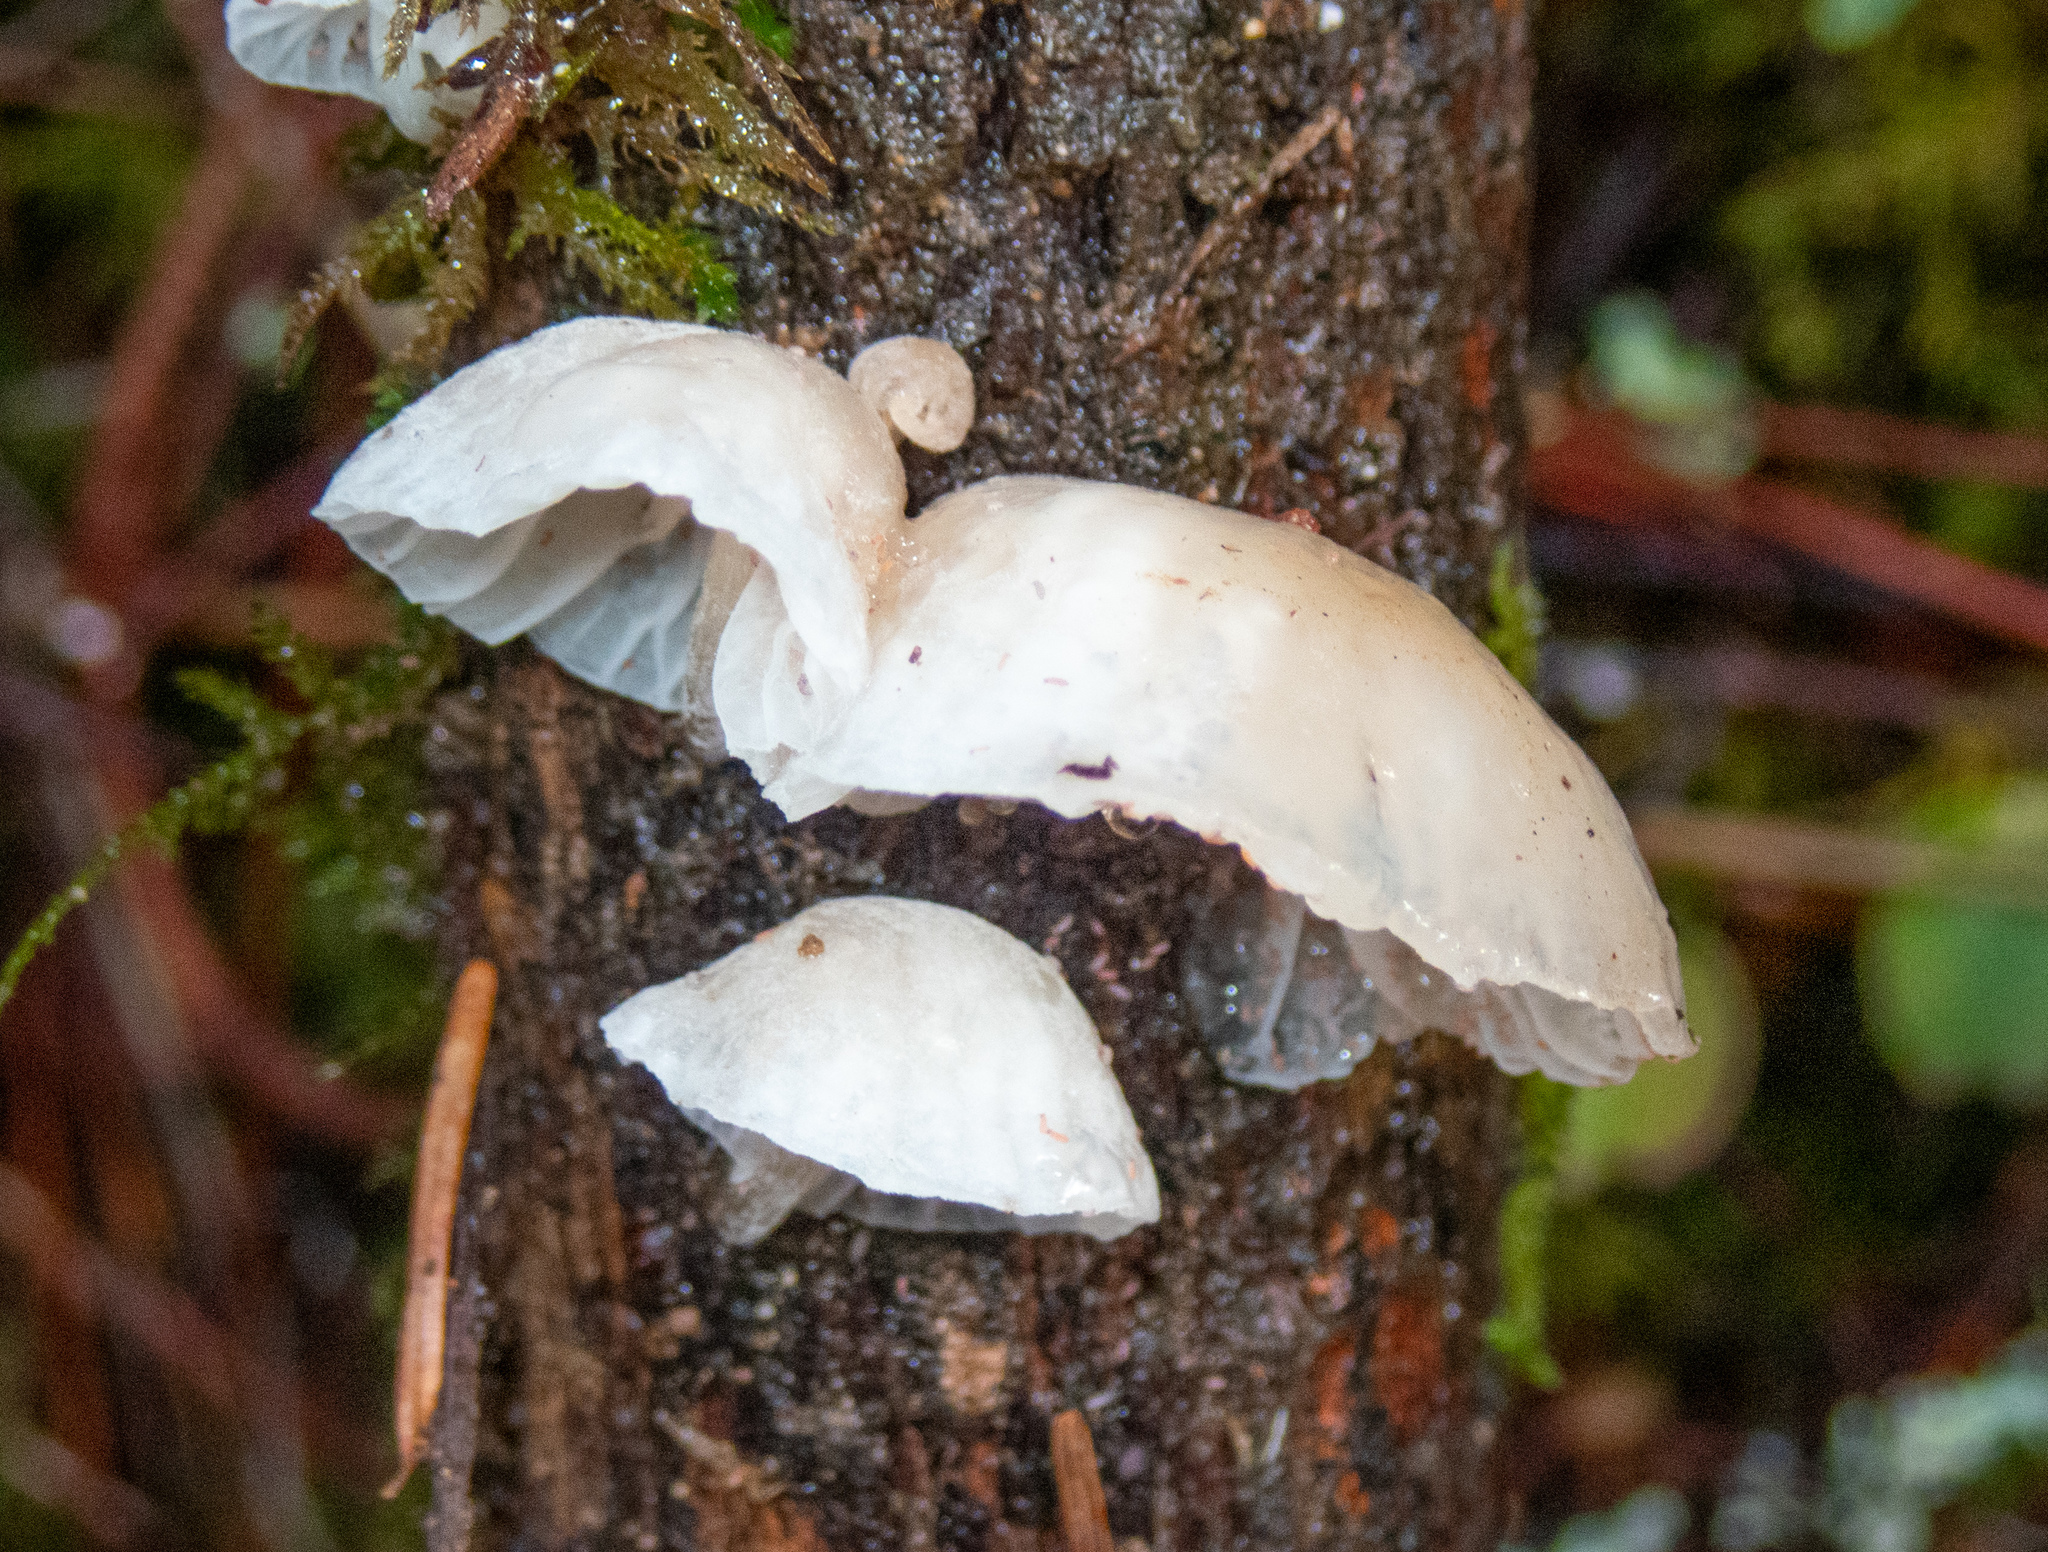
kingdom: Fungi
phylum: Basidiomycota
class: Agaricomycetes
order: Agaricales
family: Marasmiaceae
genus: Campanella
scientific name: Campanella
